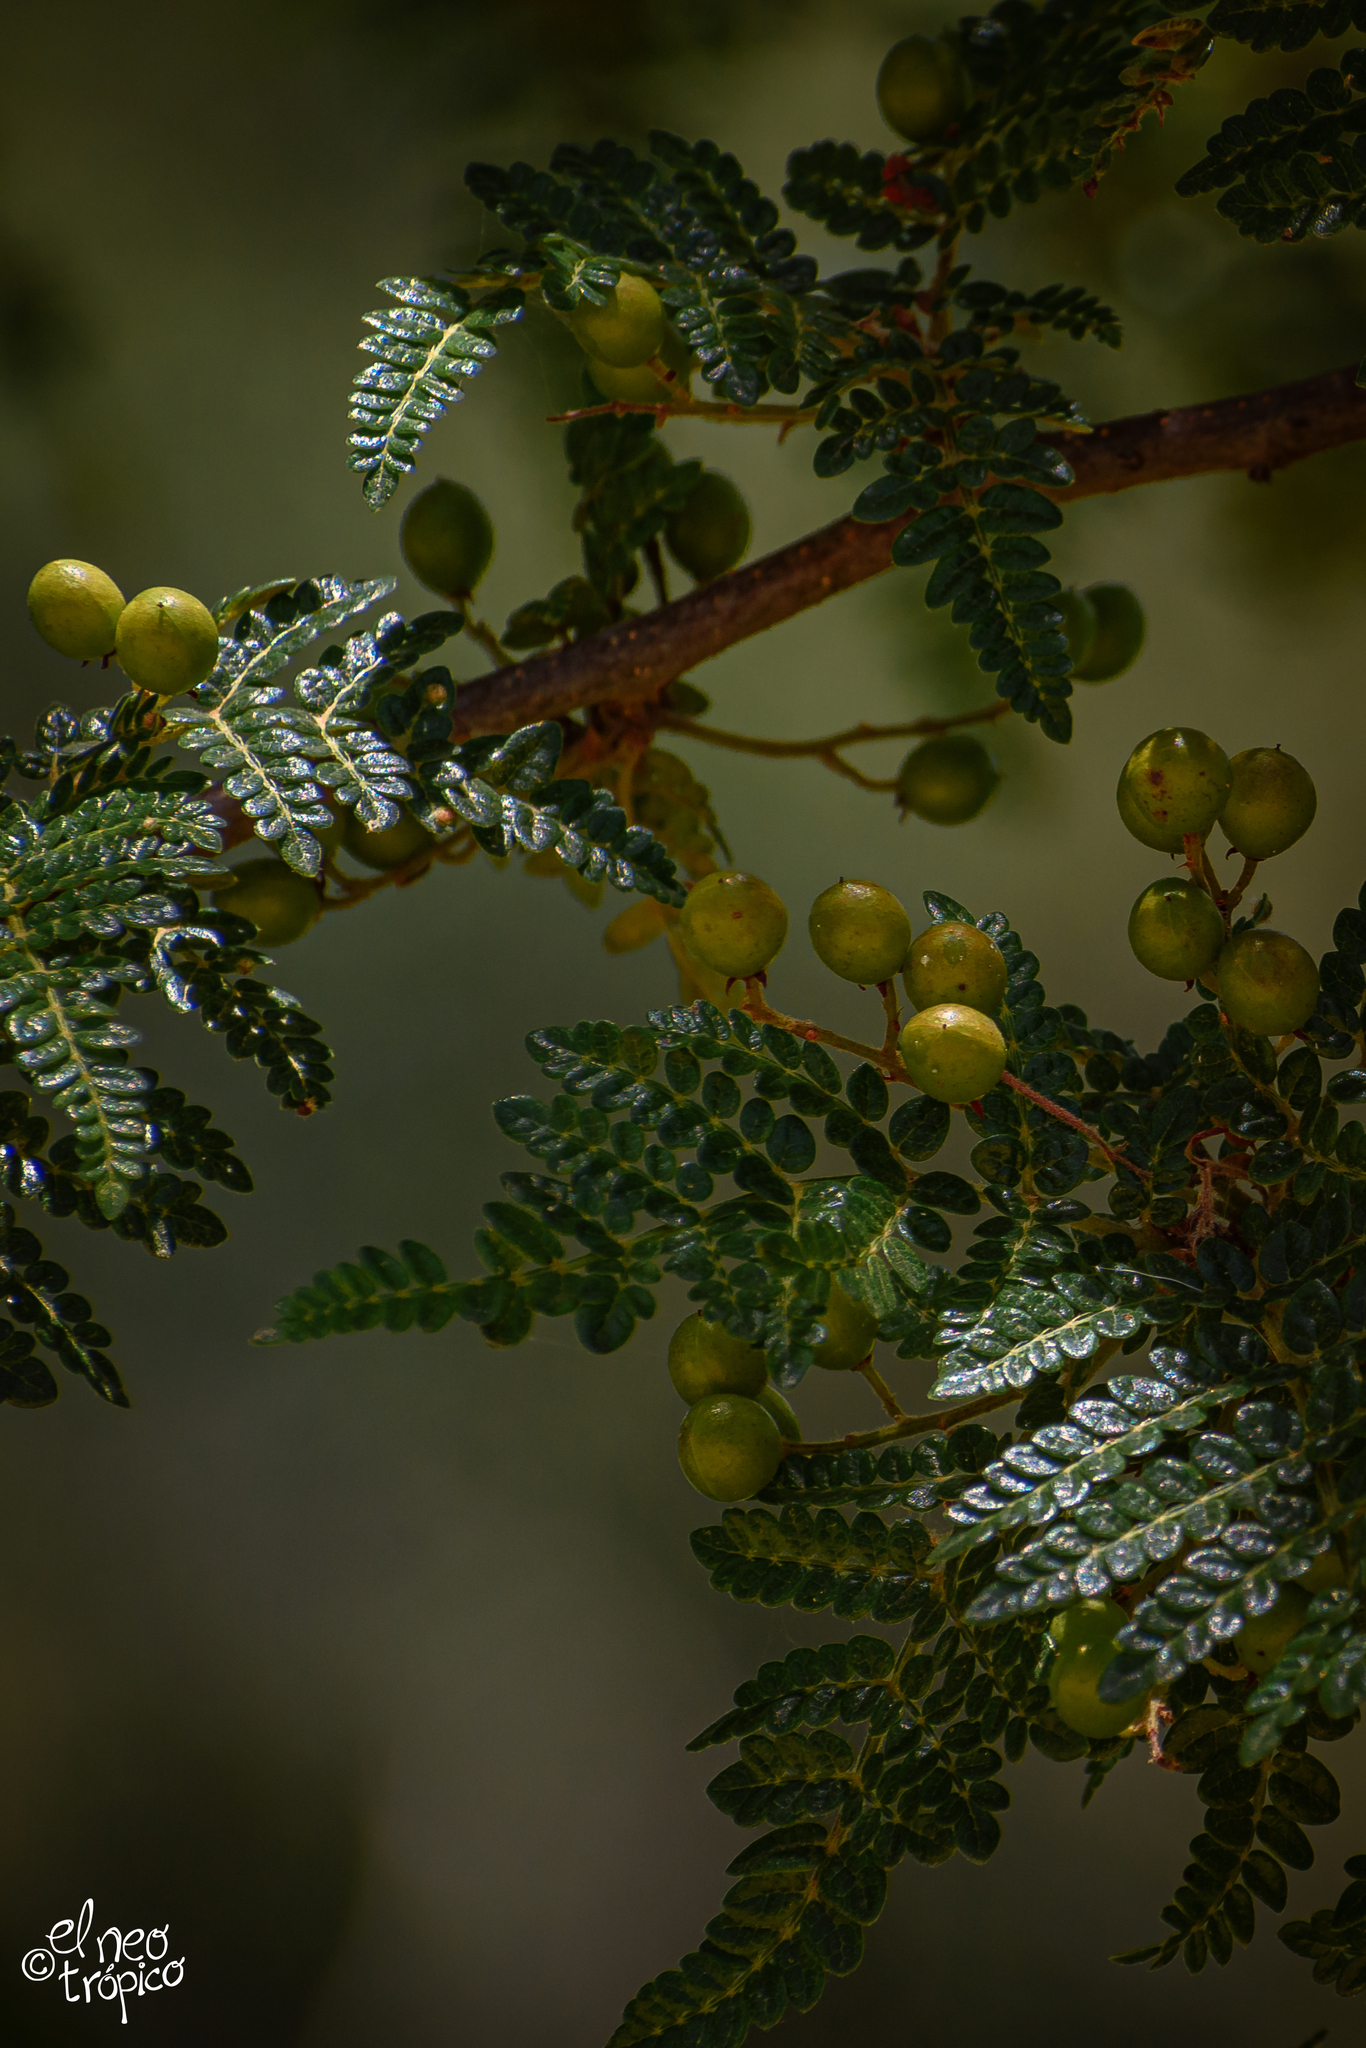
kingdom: Plantae
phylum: Tracheophyta
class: Magnoliopsida
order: Sapindales
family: Burseraceae
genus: Bursera
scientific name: Bursera bipinnata
